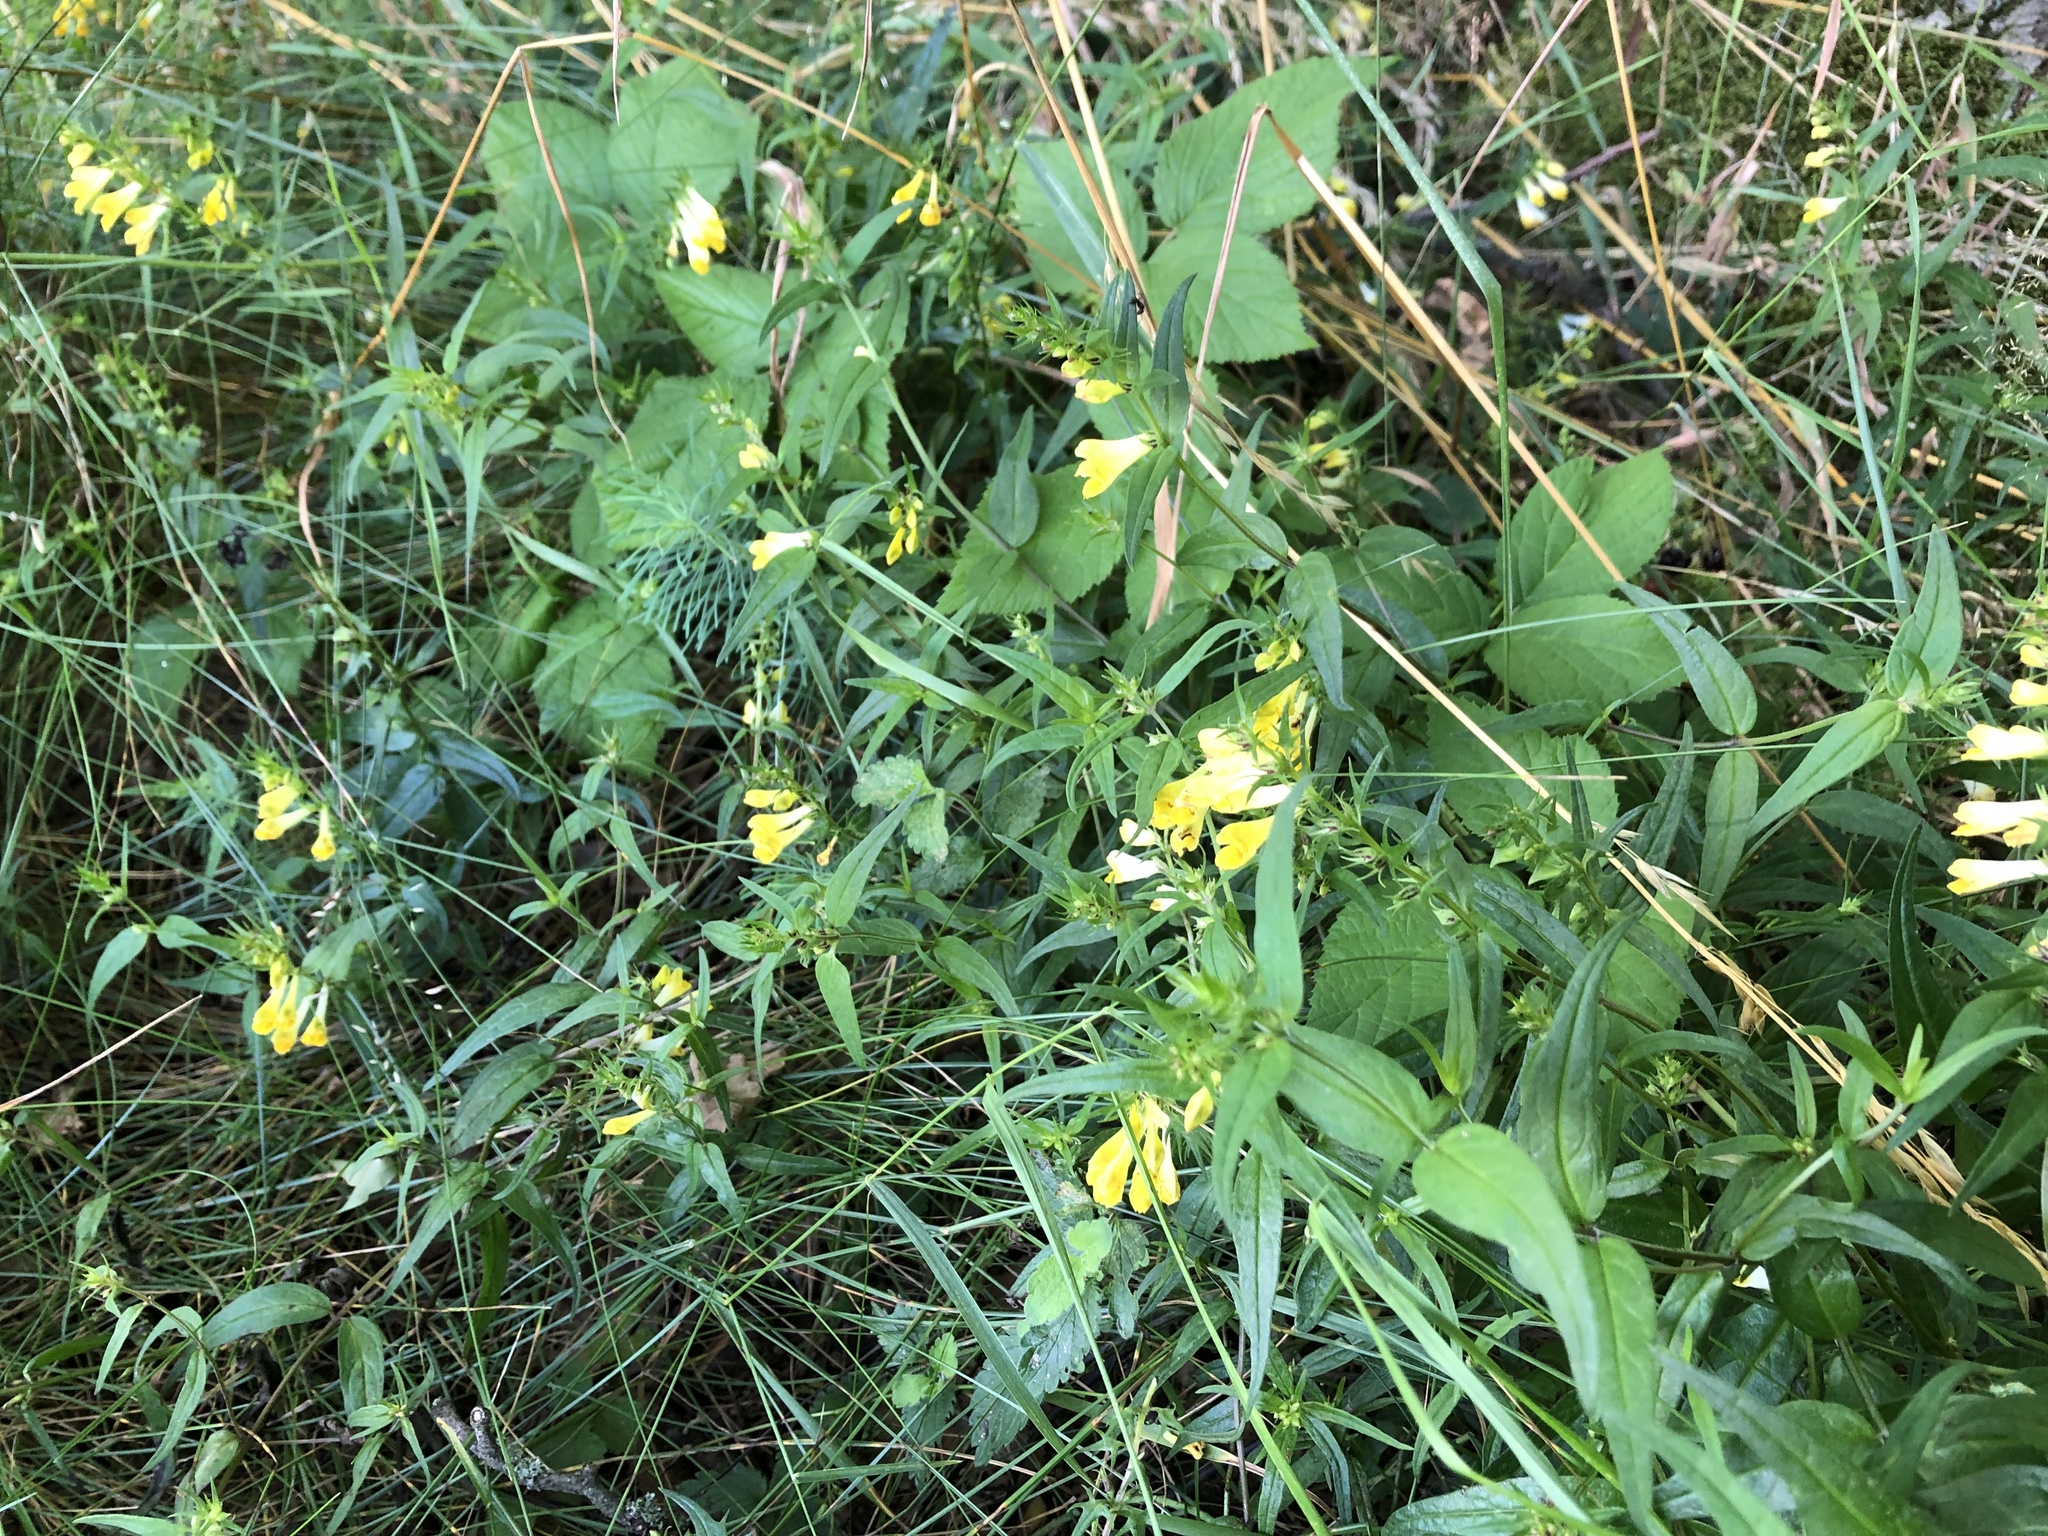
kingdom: Plantae
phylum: Tracheophyta
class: Magnoliopsida
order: Lamiales
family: Orobanchaceae
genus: Melampyrum
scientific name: Melampyrum pratense
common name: Common cow-wheat
